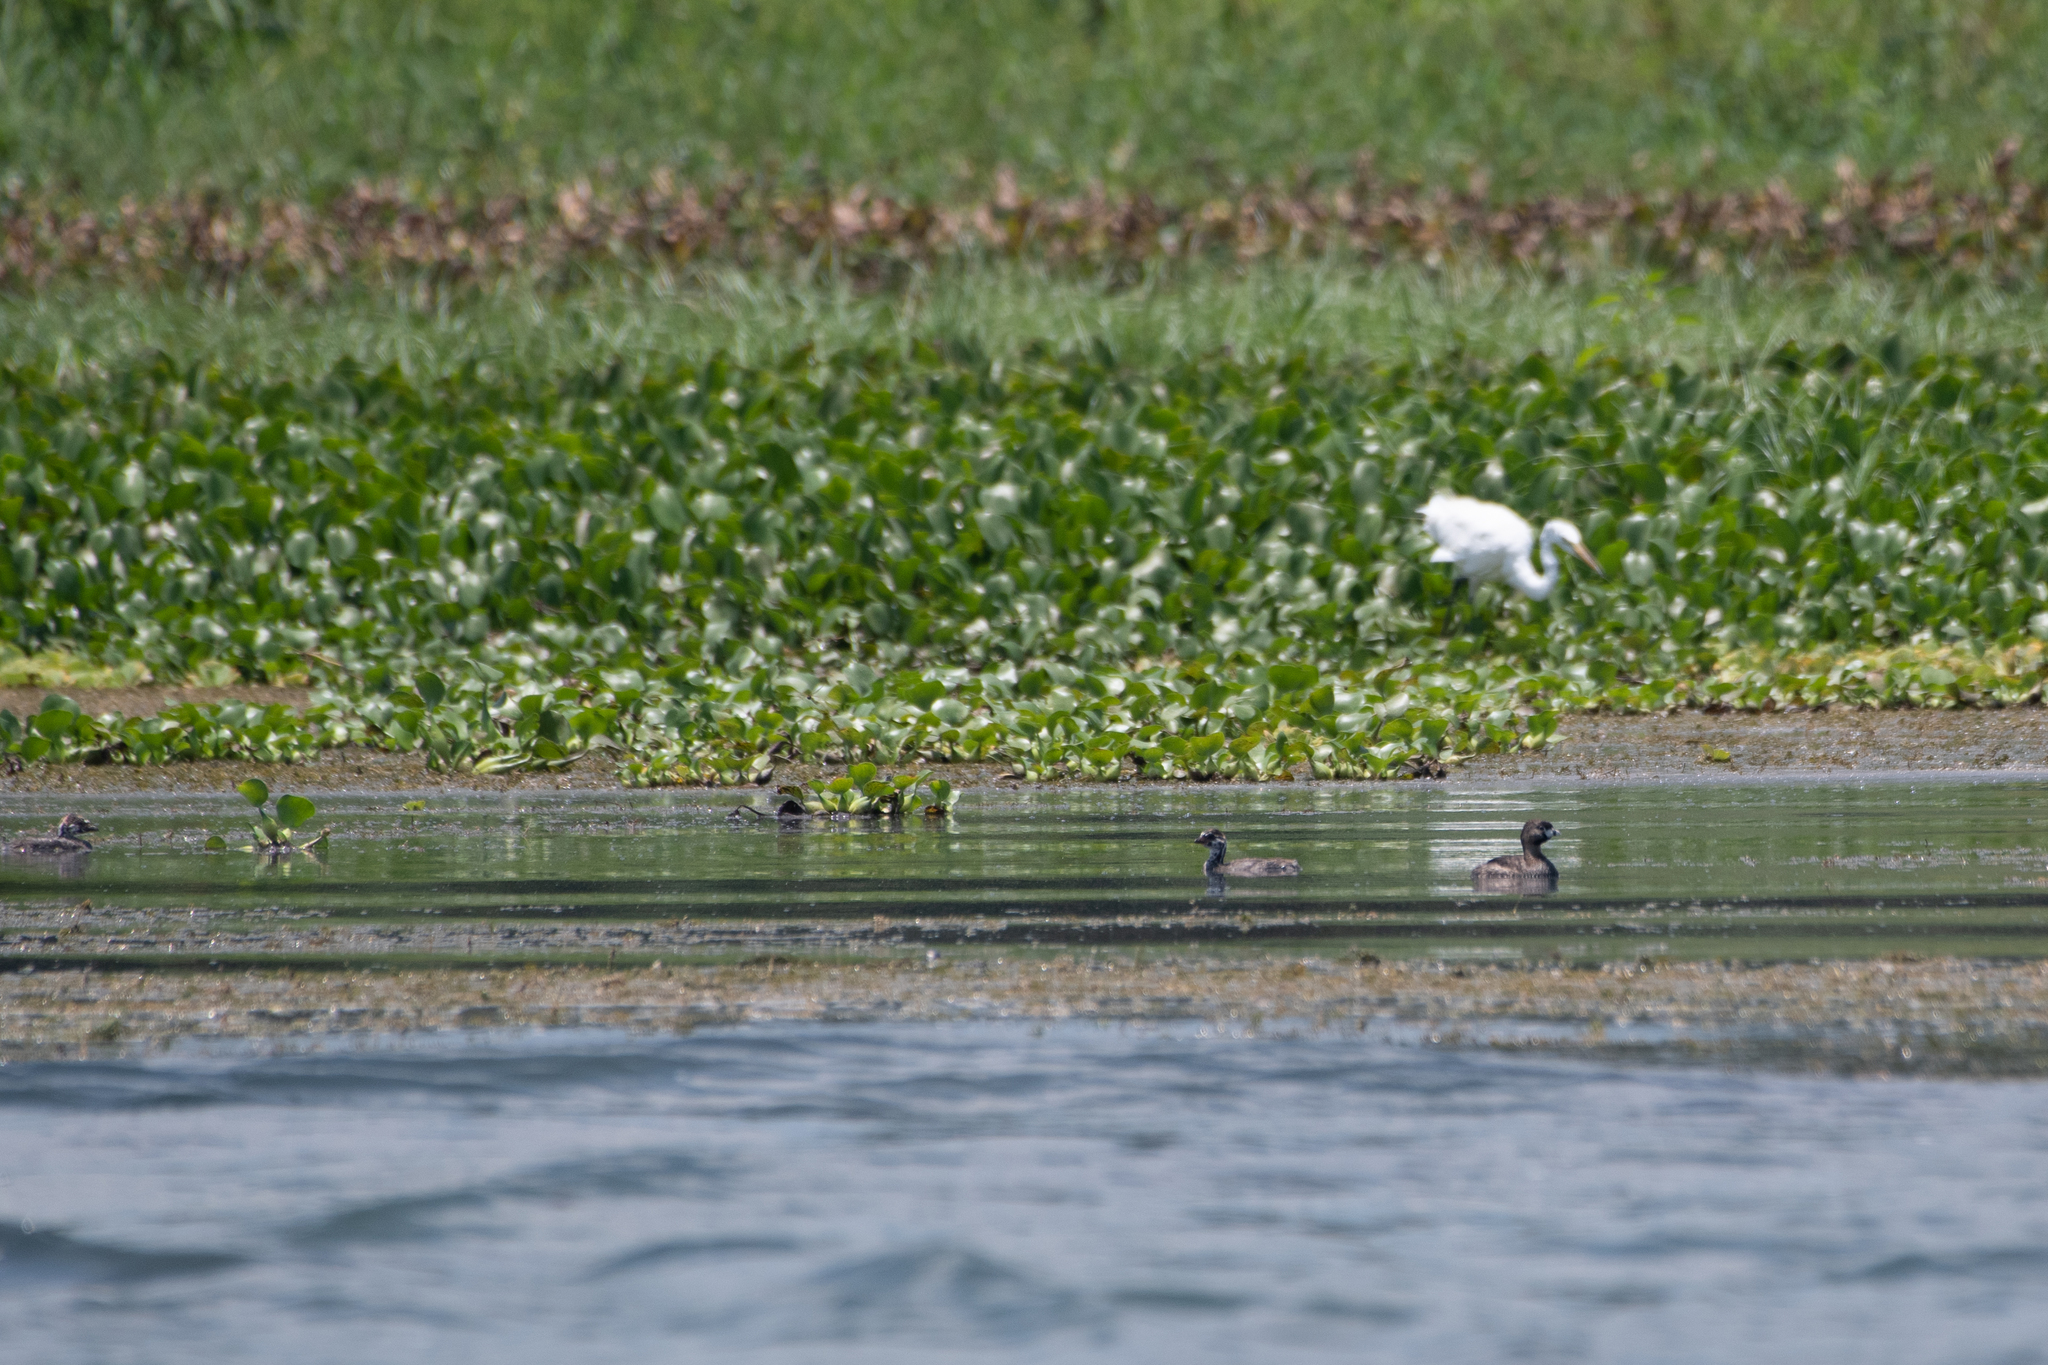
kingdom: Animalia
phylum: Chordata
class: Aves
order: Podicipediformes
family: Podicipedidae
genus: Podilymbus
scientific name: Podilymbus podiceps
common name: Pied-billed grebe
